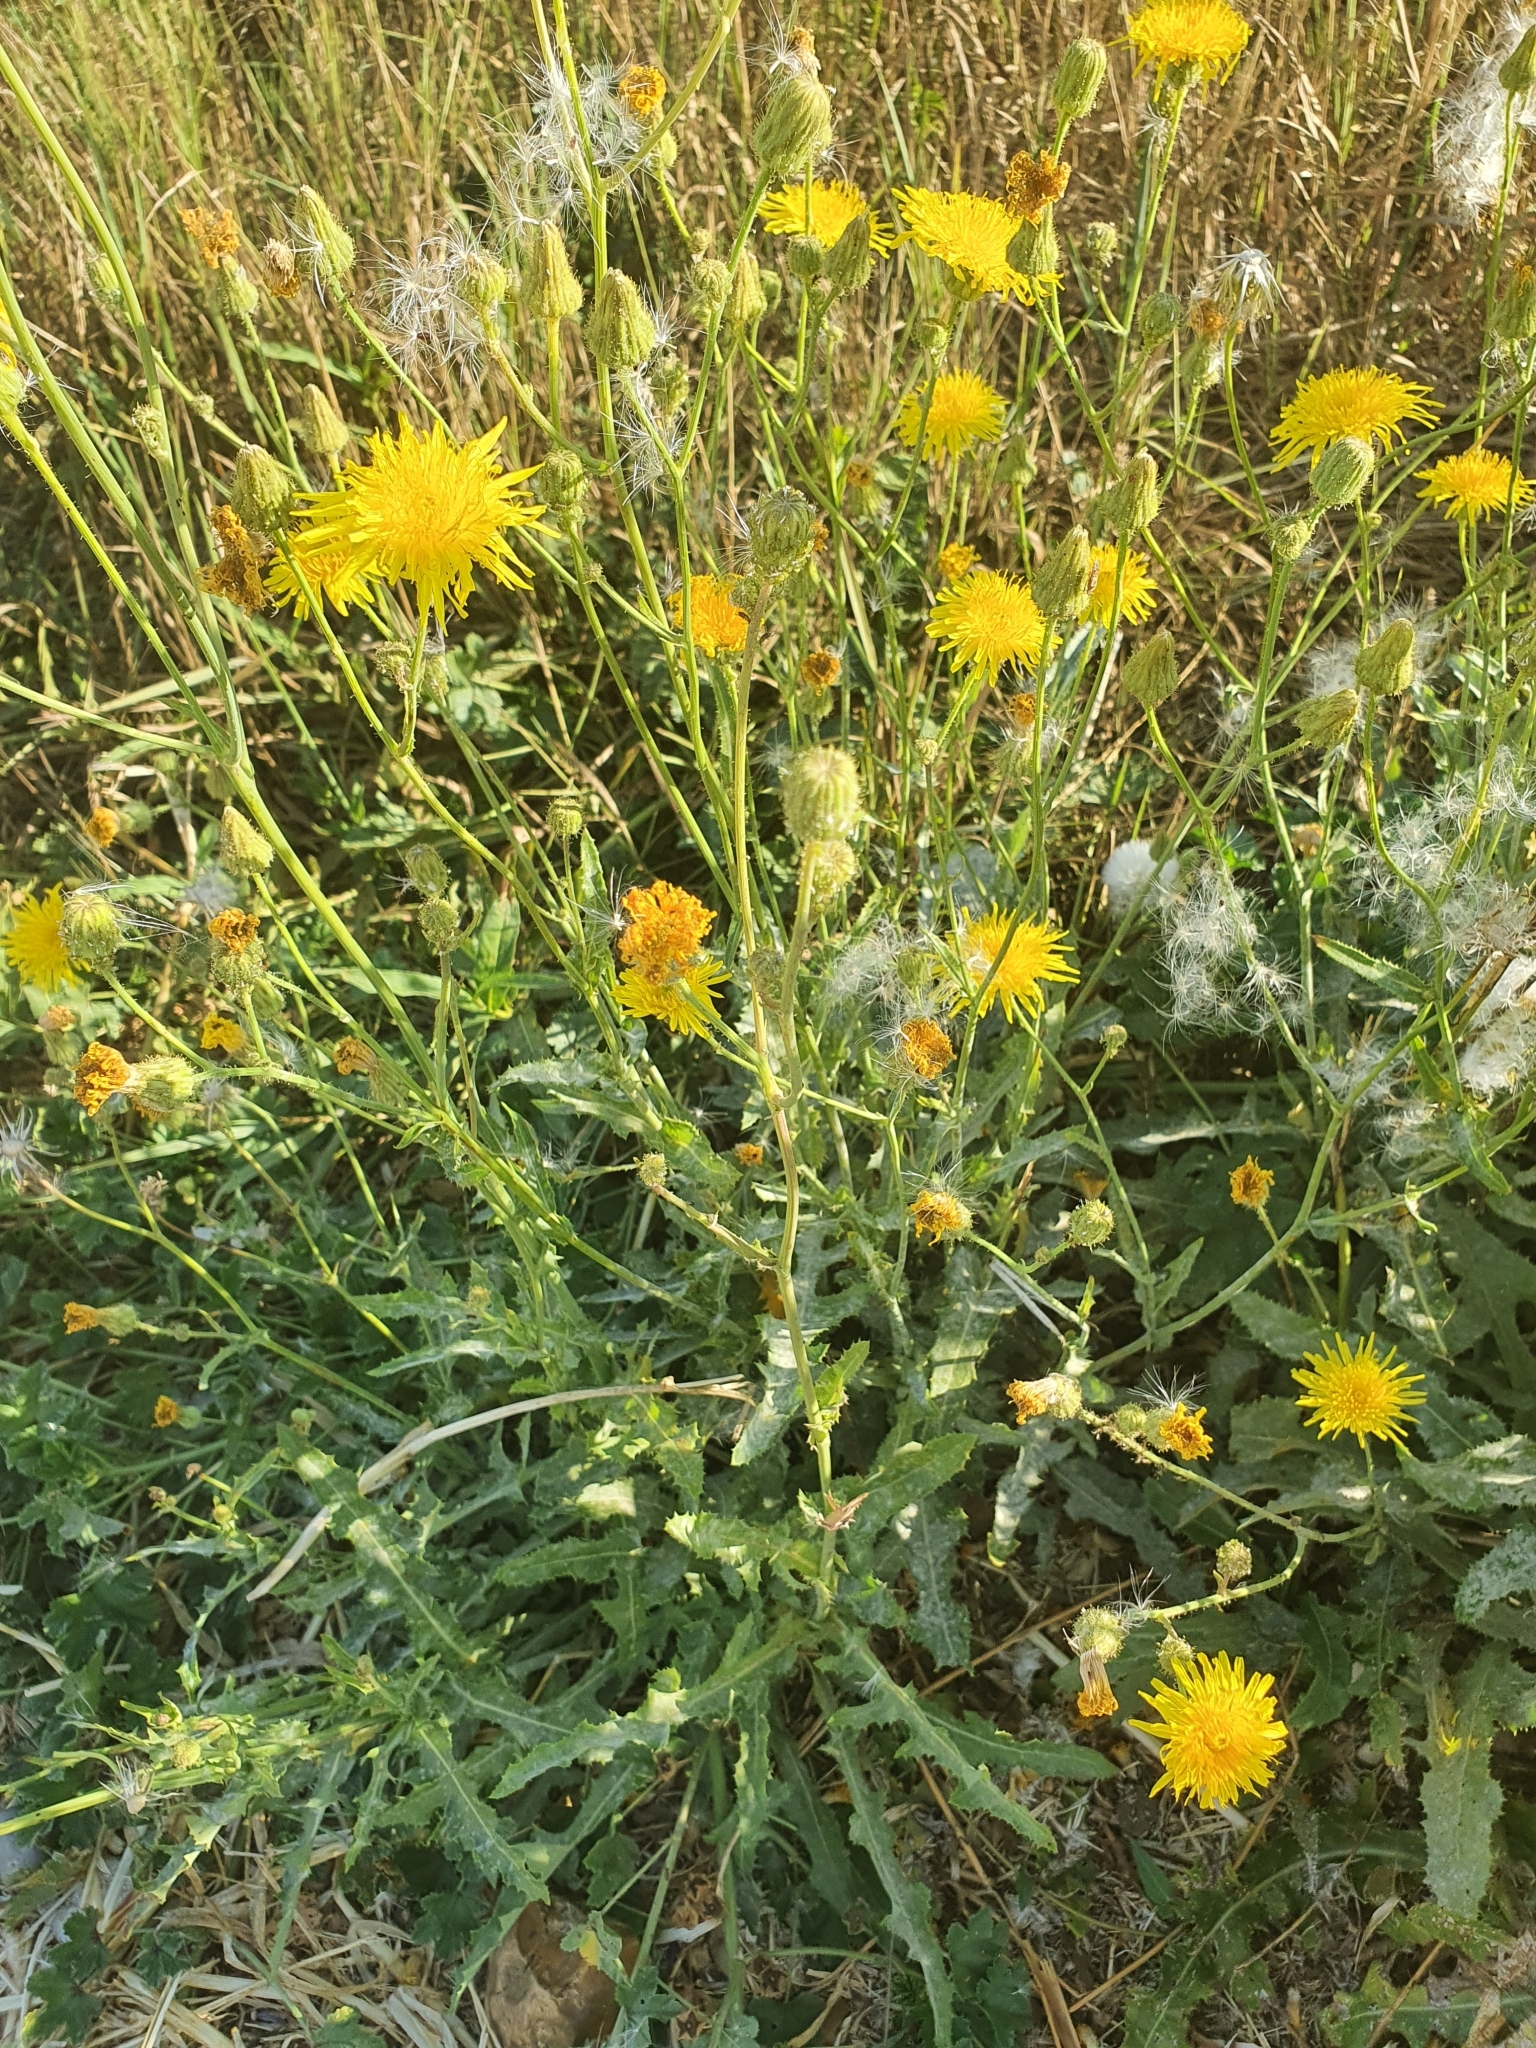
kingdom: Plantae
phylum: Tracheophyta
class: Magnoliopsida
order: Asterales
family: Asteraceae
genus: Sonchus
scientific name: Sonchus arvensis
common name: Perennial sow-thistle
